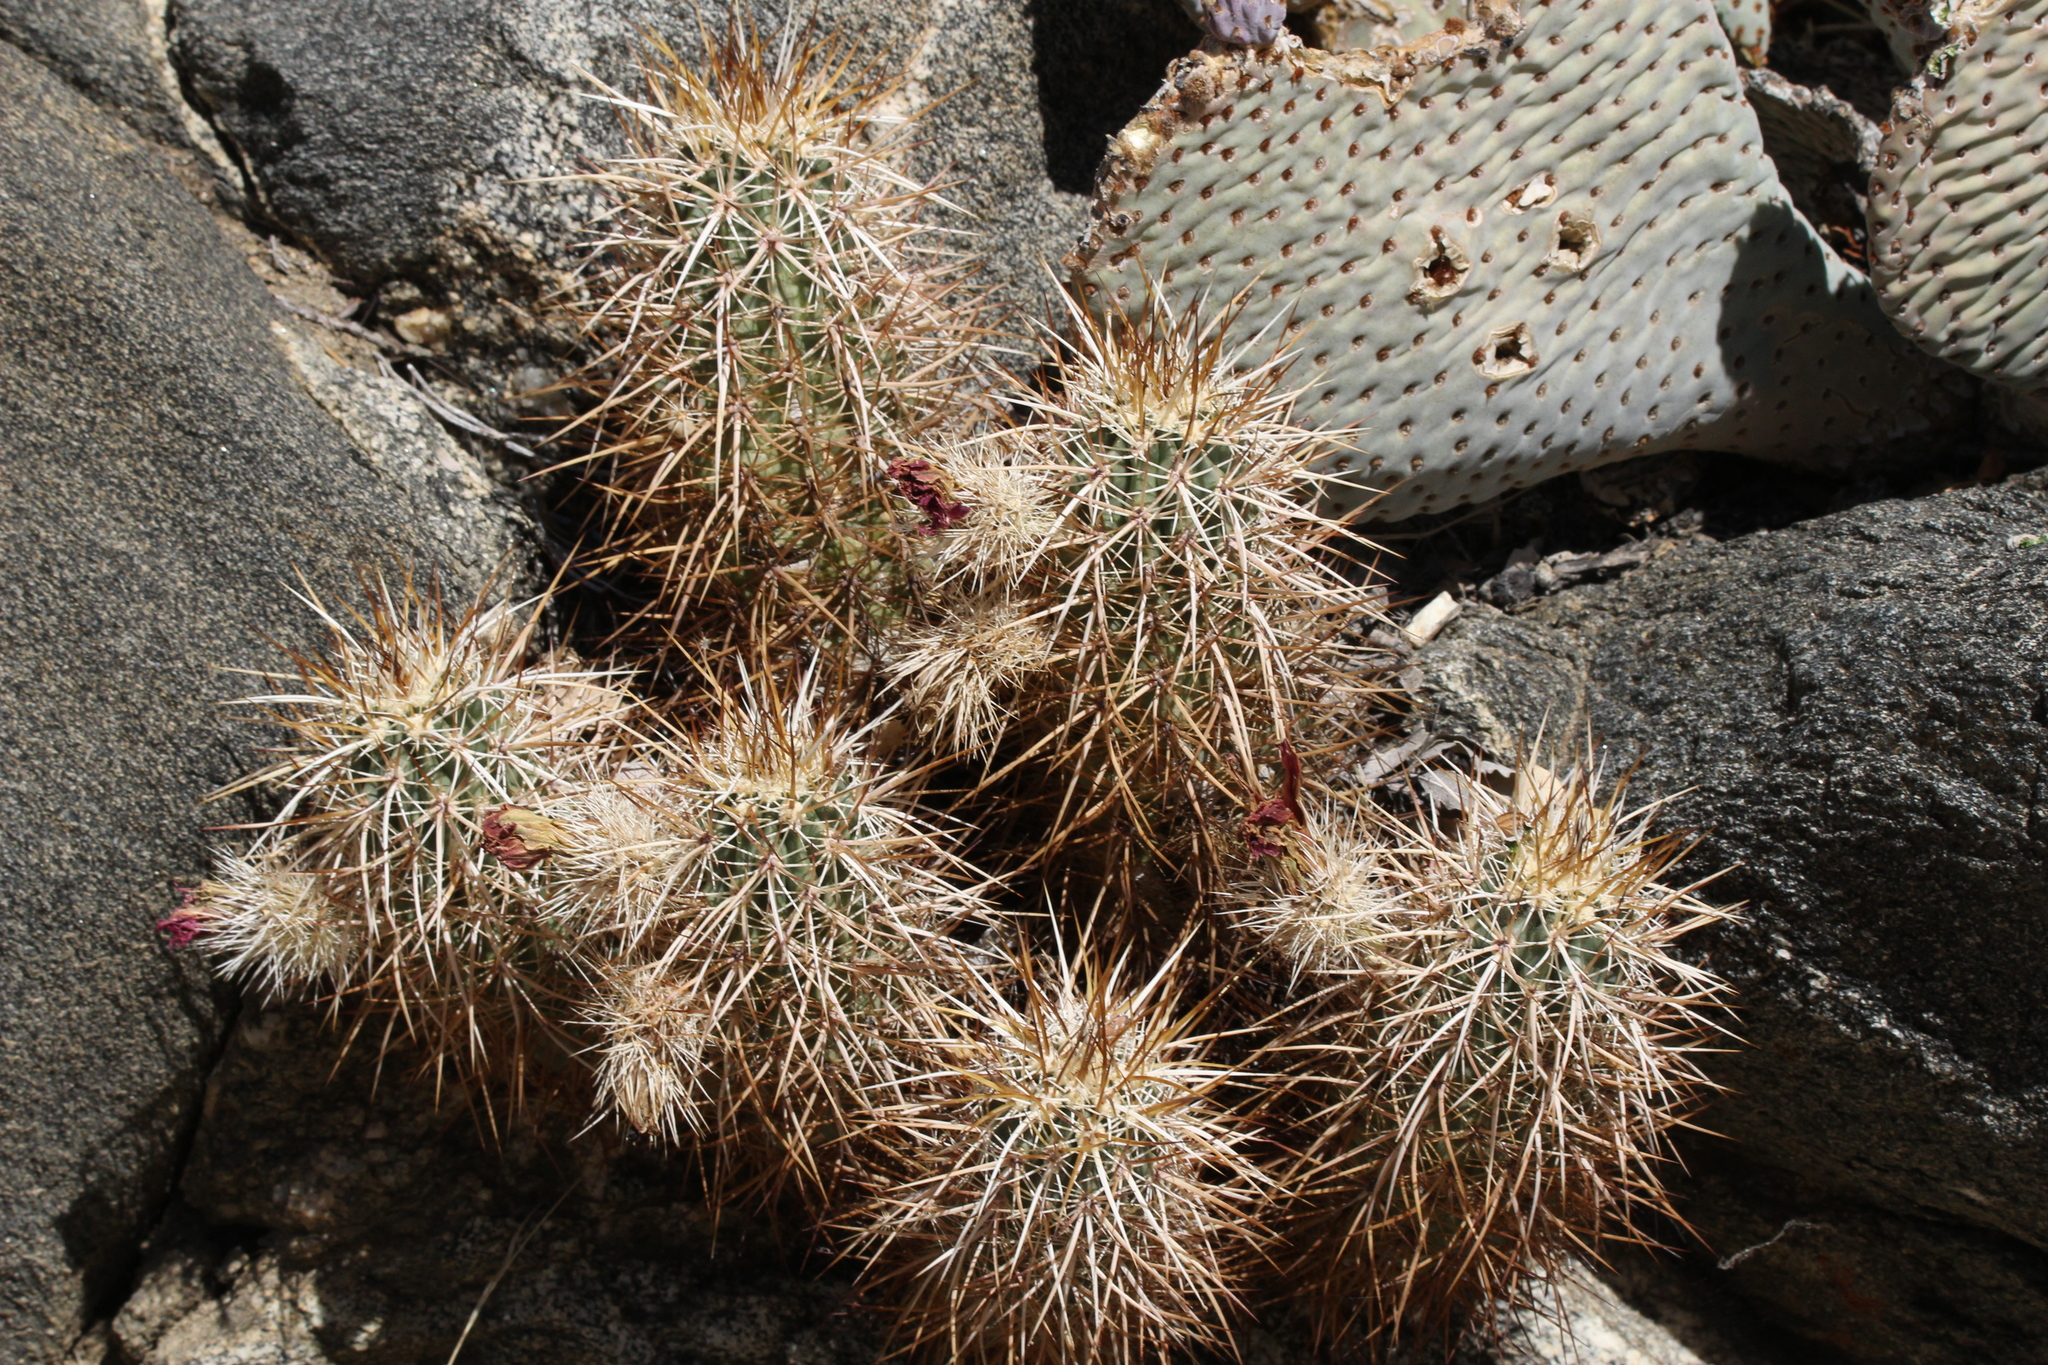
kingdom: Plantae
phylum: Tracheophyta
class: Magnoliopsida
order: Caryophyllales
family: Cactaceae
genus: Echinocereus
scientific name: Echinocereus engelmannii
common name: Engelmann's hedgehog cactus
